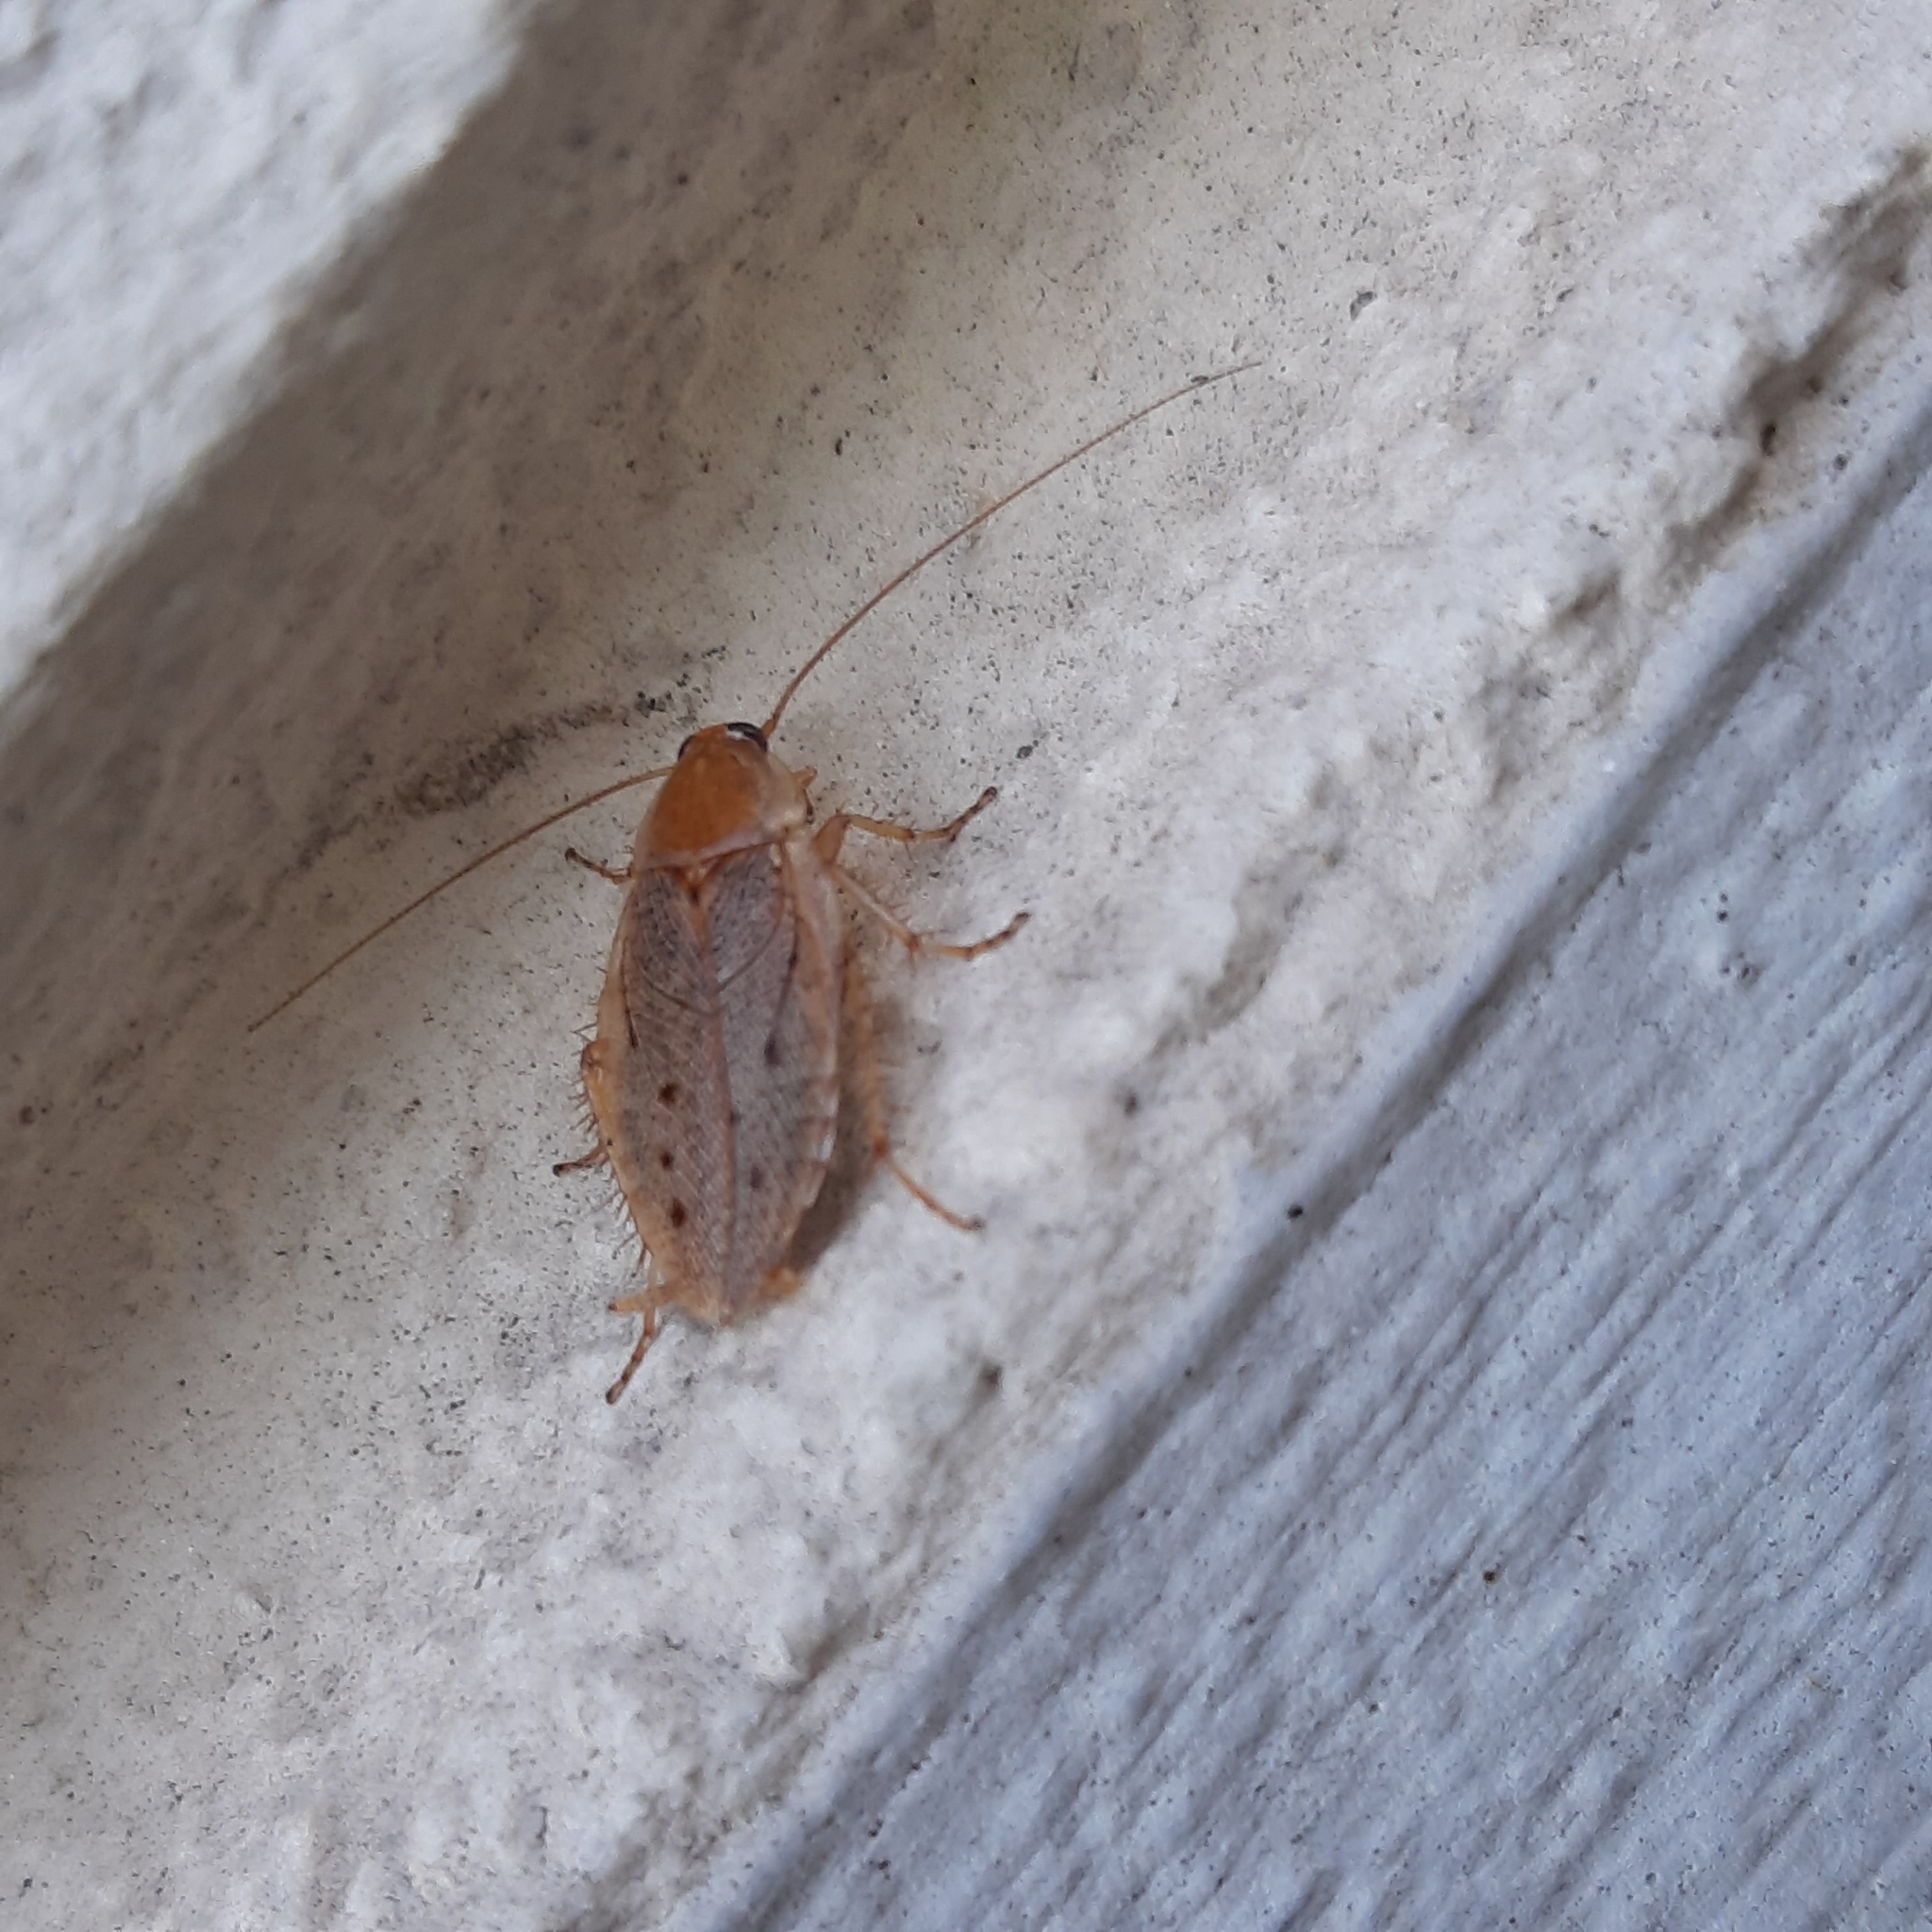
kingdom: Animalia
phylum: Arthropoda
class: Insecta
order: Blattodea
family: Ectobiidae
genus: Ectobius
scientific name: Ectobius vittiventris
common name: Garden cockroach
